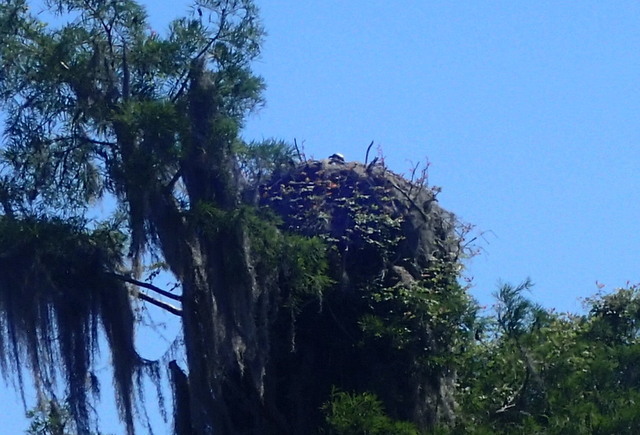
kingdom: Animalia
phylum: Chordata
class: Aves
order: Accipitriformes
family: Pandionidae
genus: Pandion
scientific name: Pandion haliaetus
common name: Osprey
